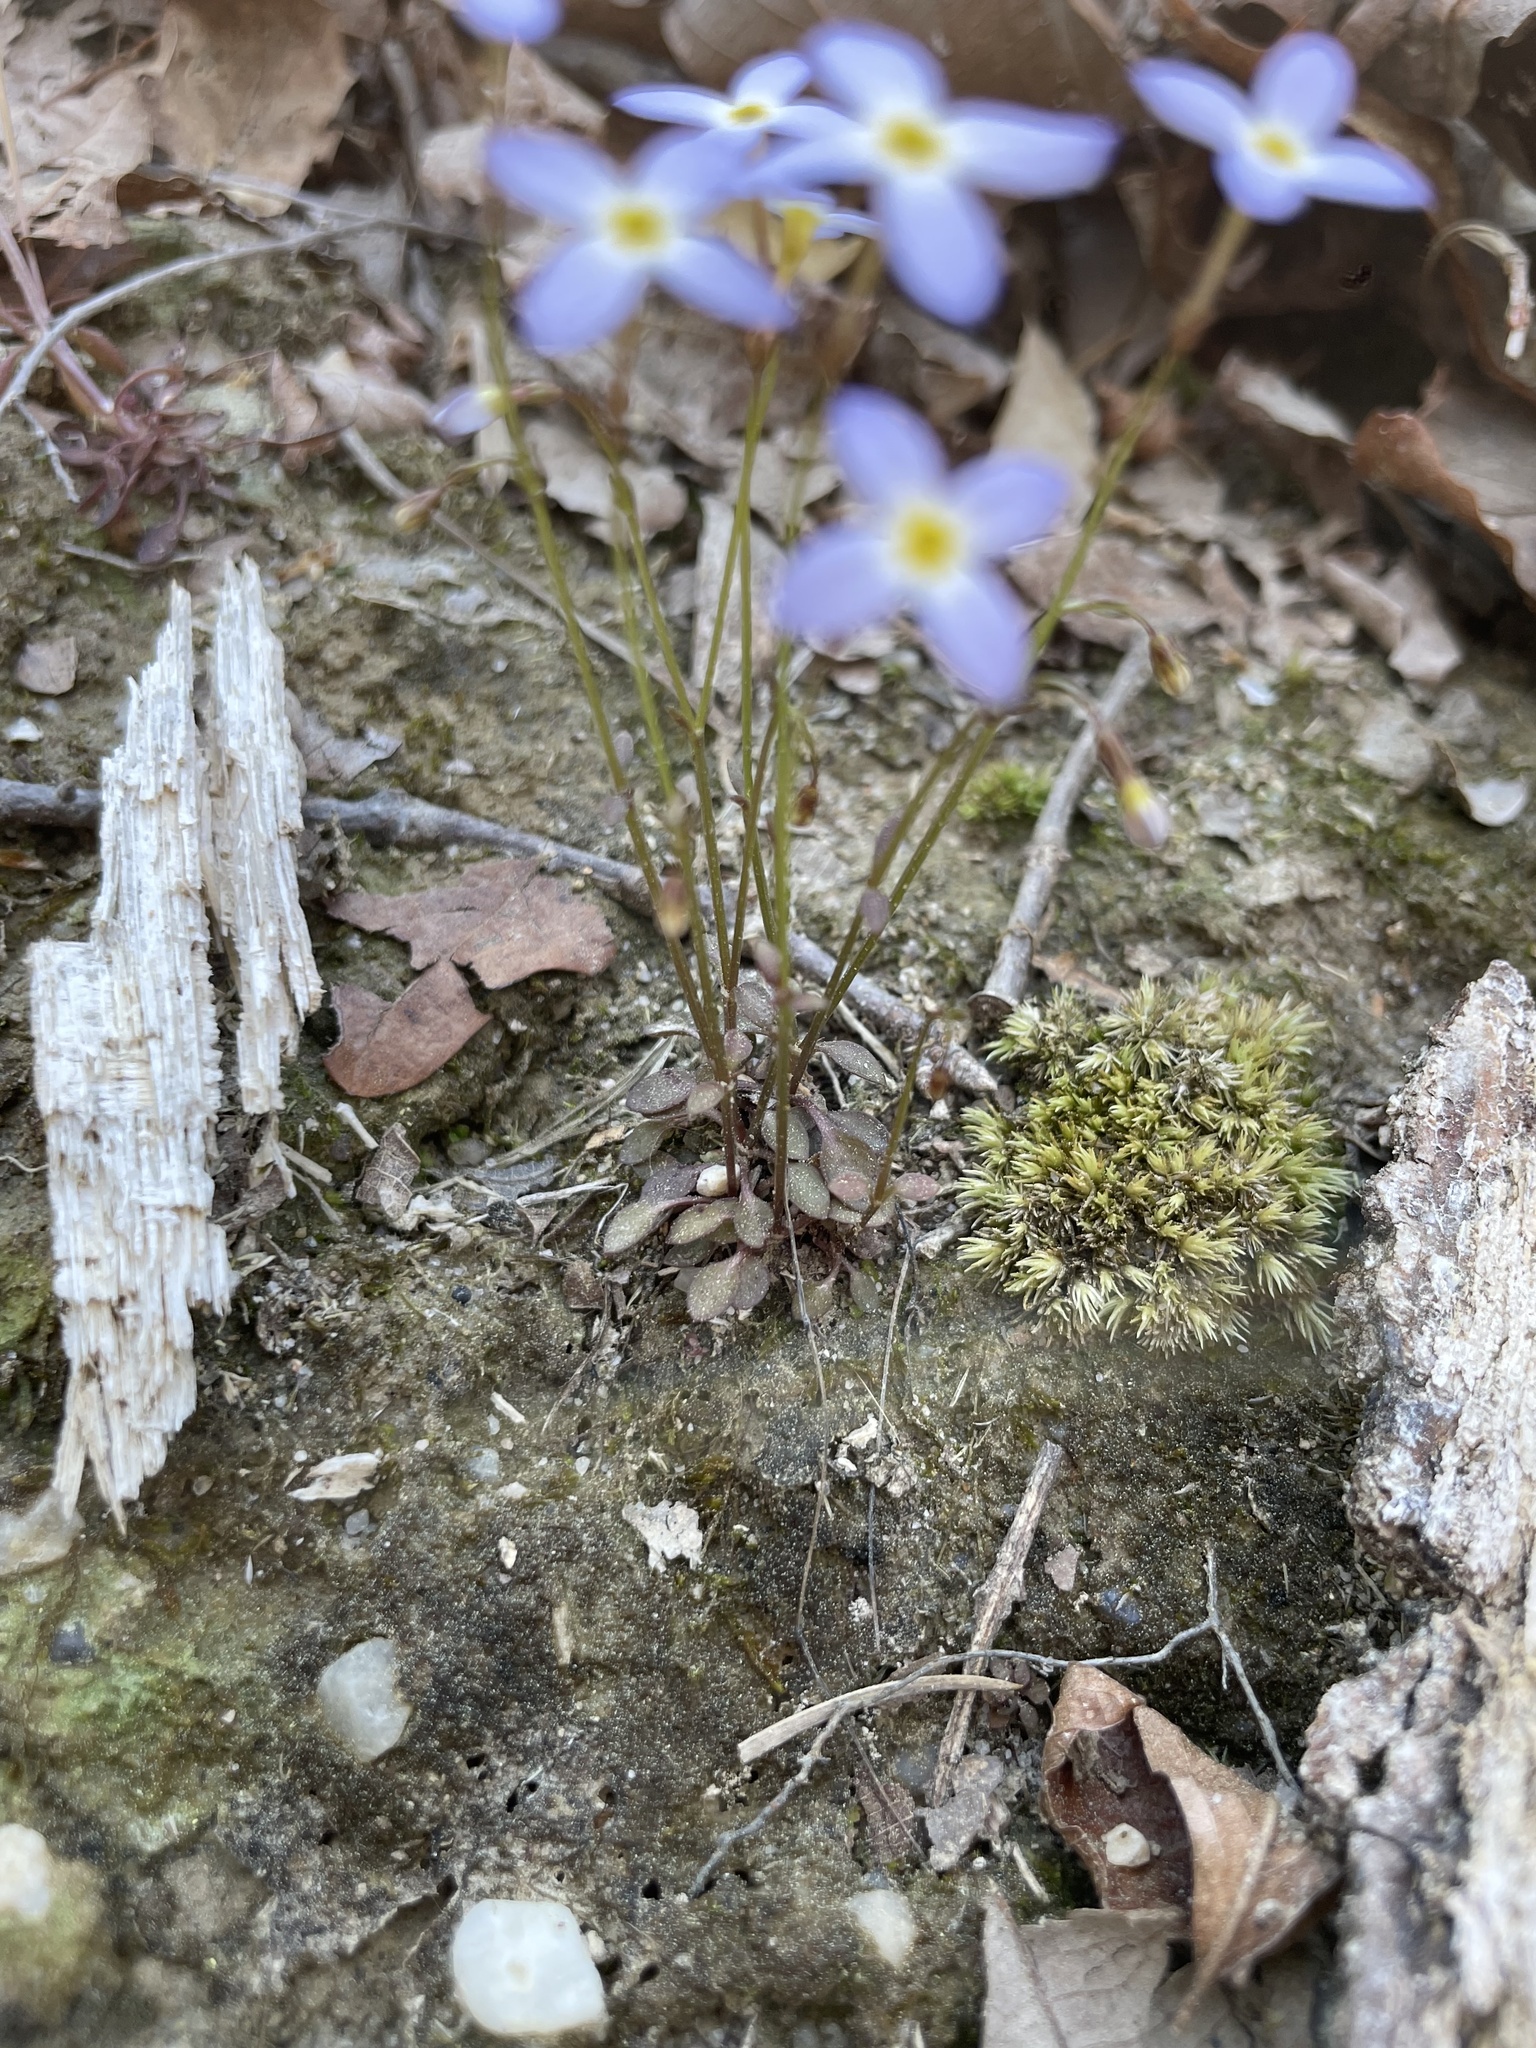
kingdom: Plantae
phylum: Tracheophyta
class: Magnoliopsida
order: Gentianales
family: Rubiaceae
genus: Houstonia
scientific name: Houstonia caerulea
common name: Bluets
